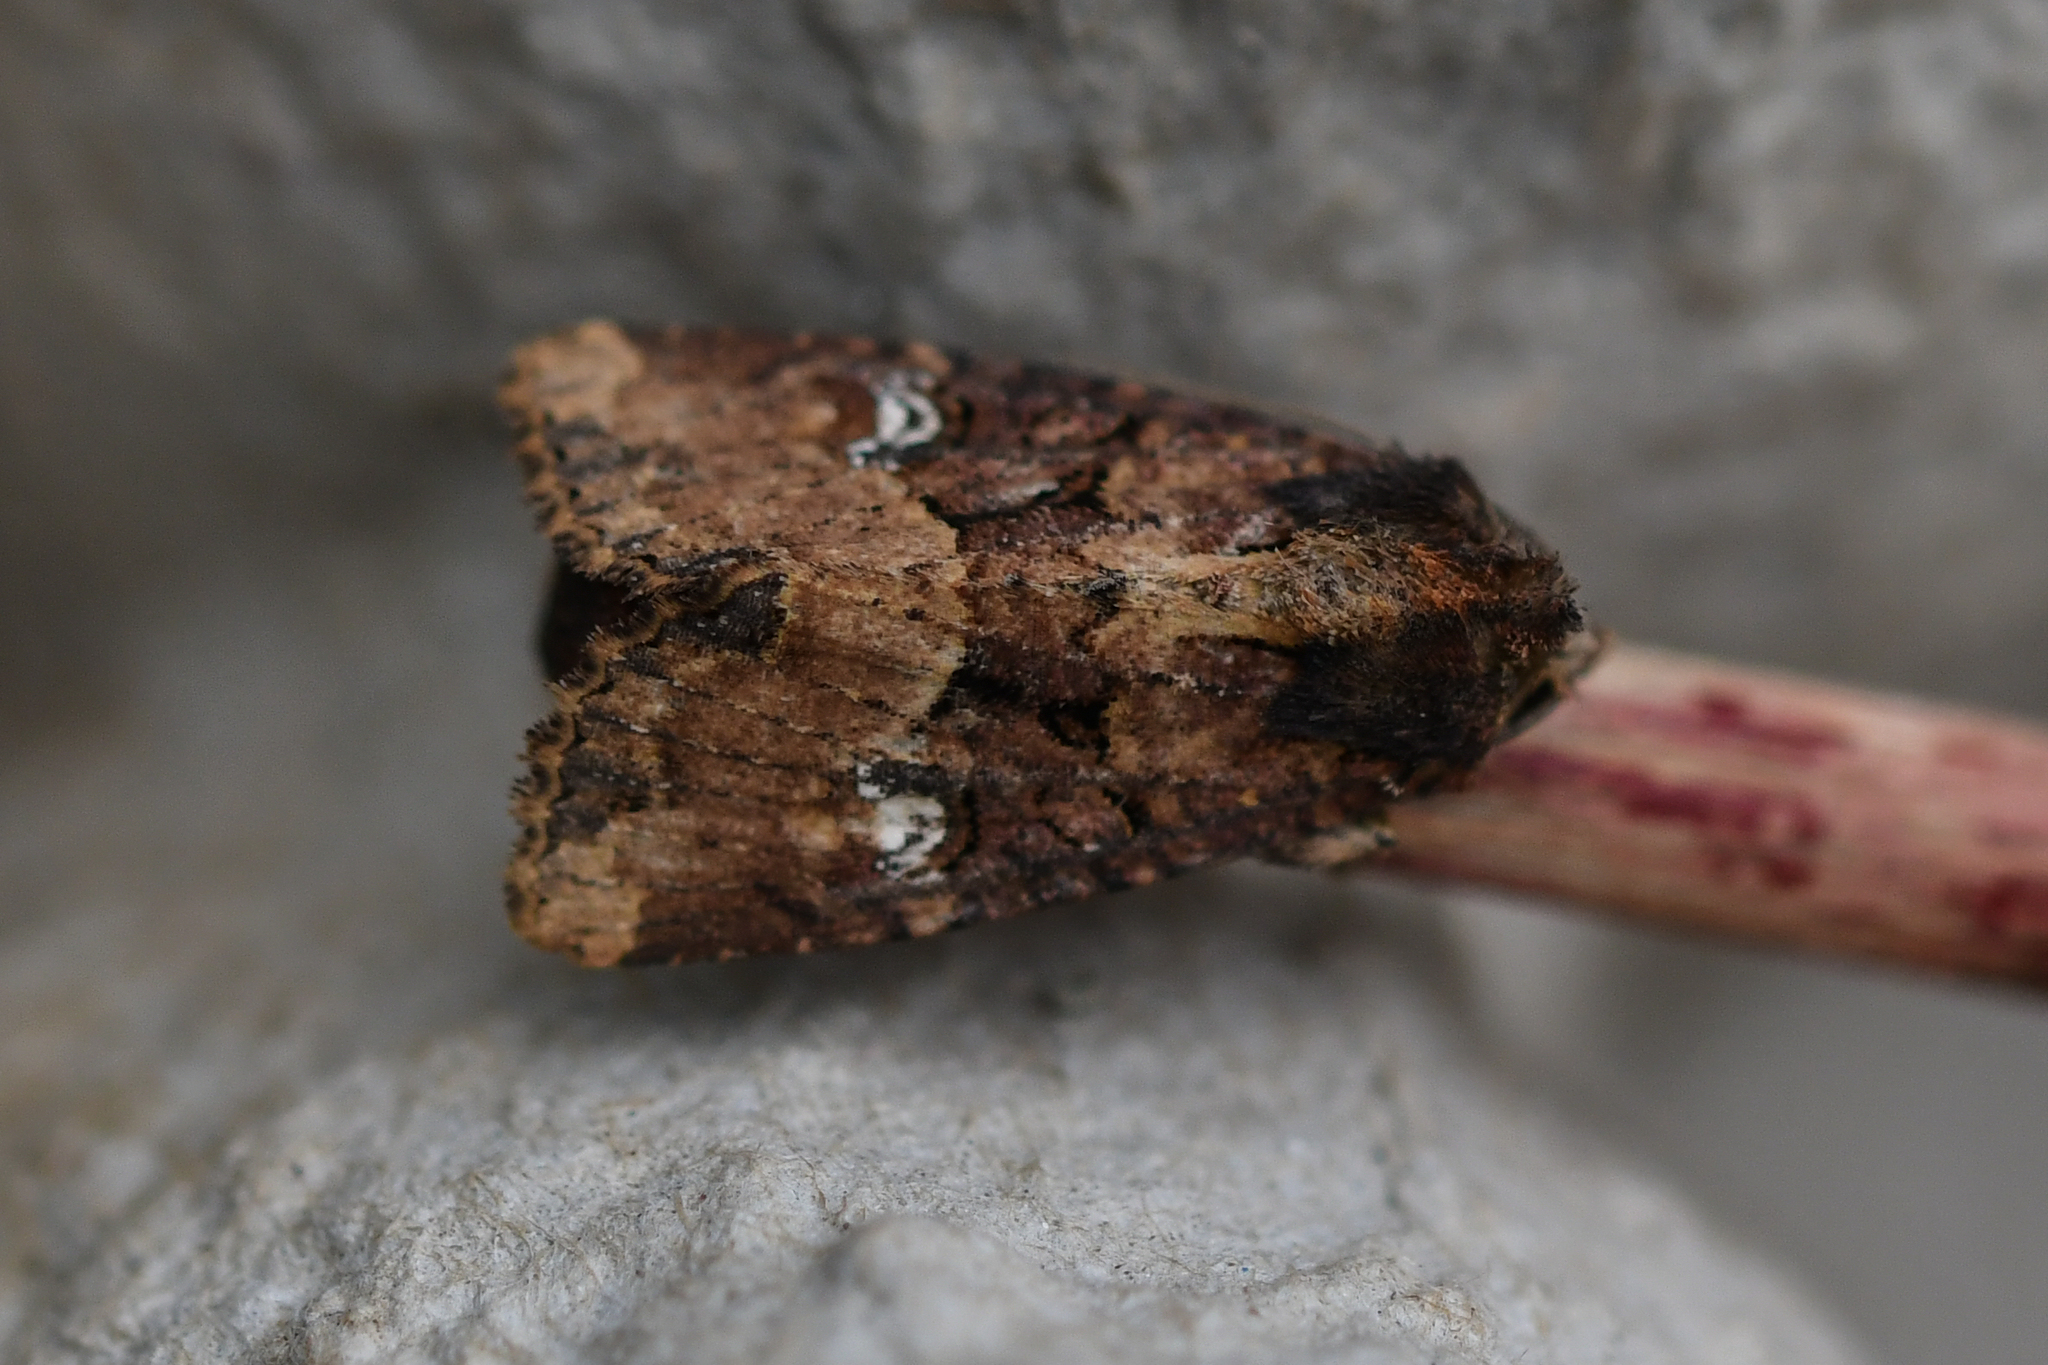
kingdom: Animalia
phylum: Arthropoda
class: Insecta
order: Lepidoptera
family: Noctuidae
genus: Mesapamea
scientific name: Mesapamea
